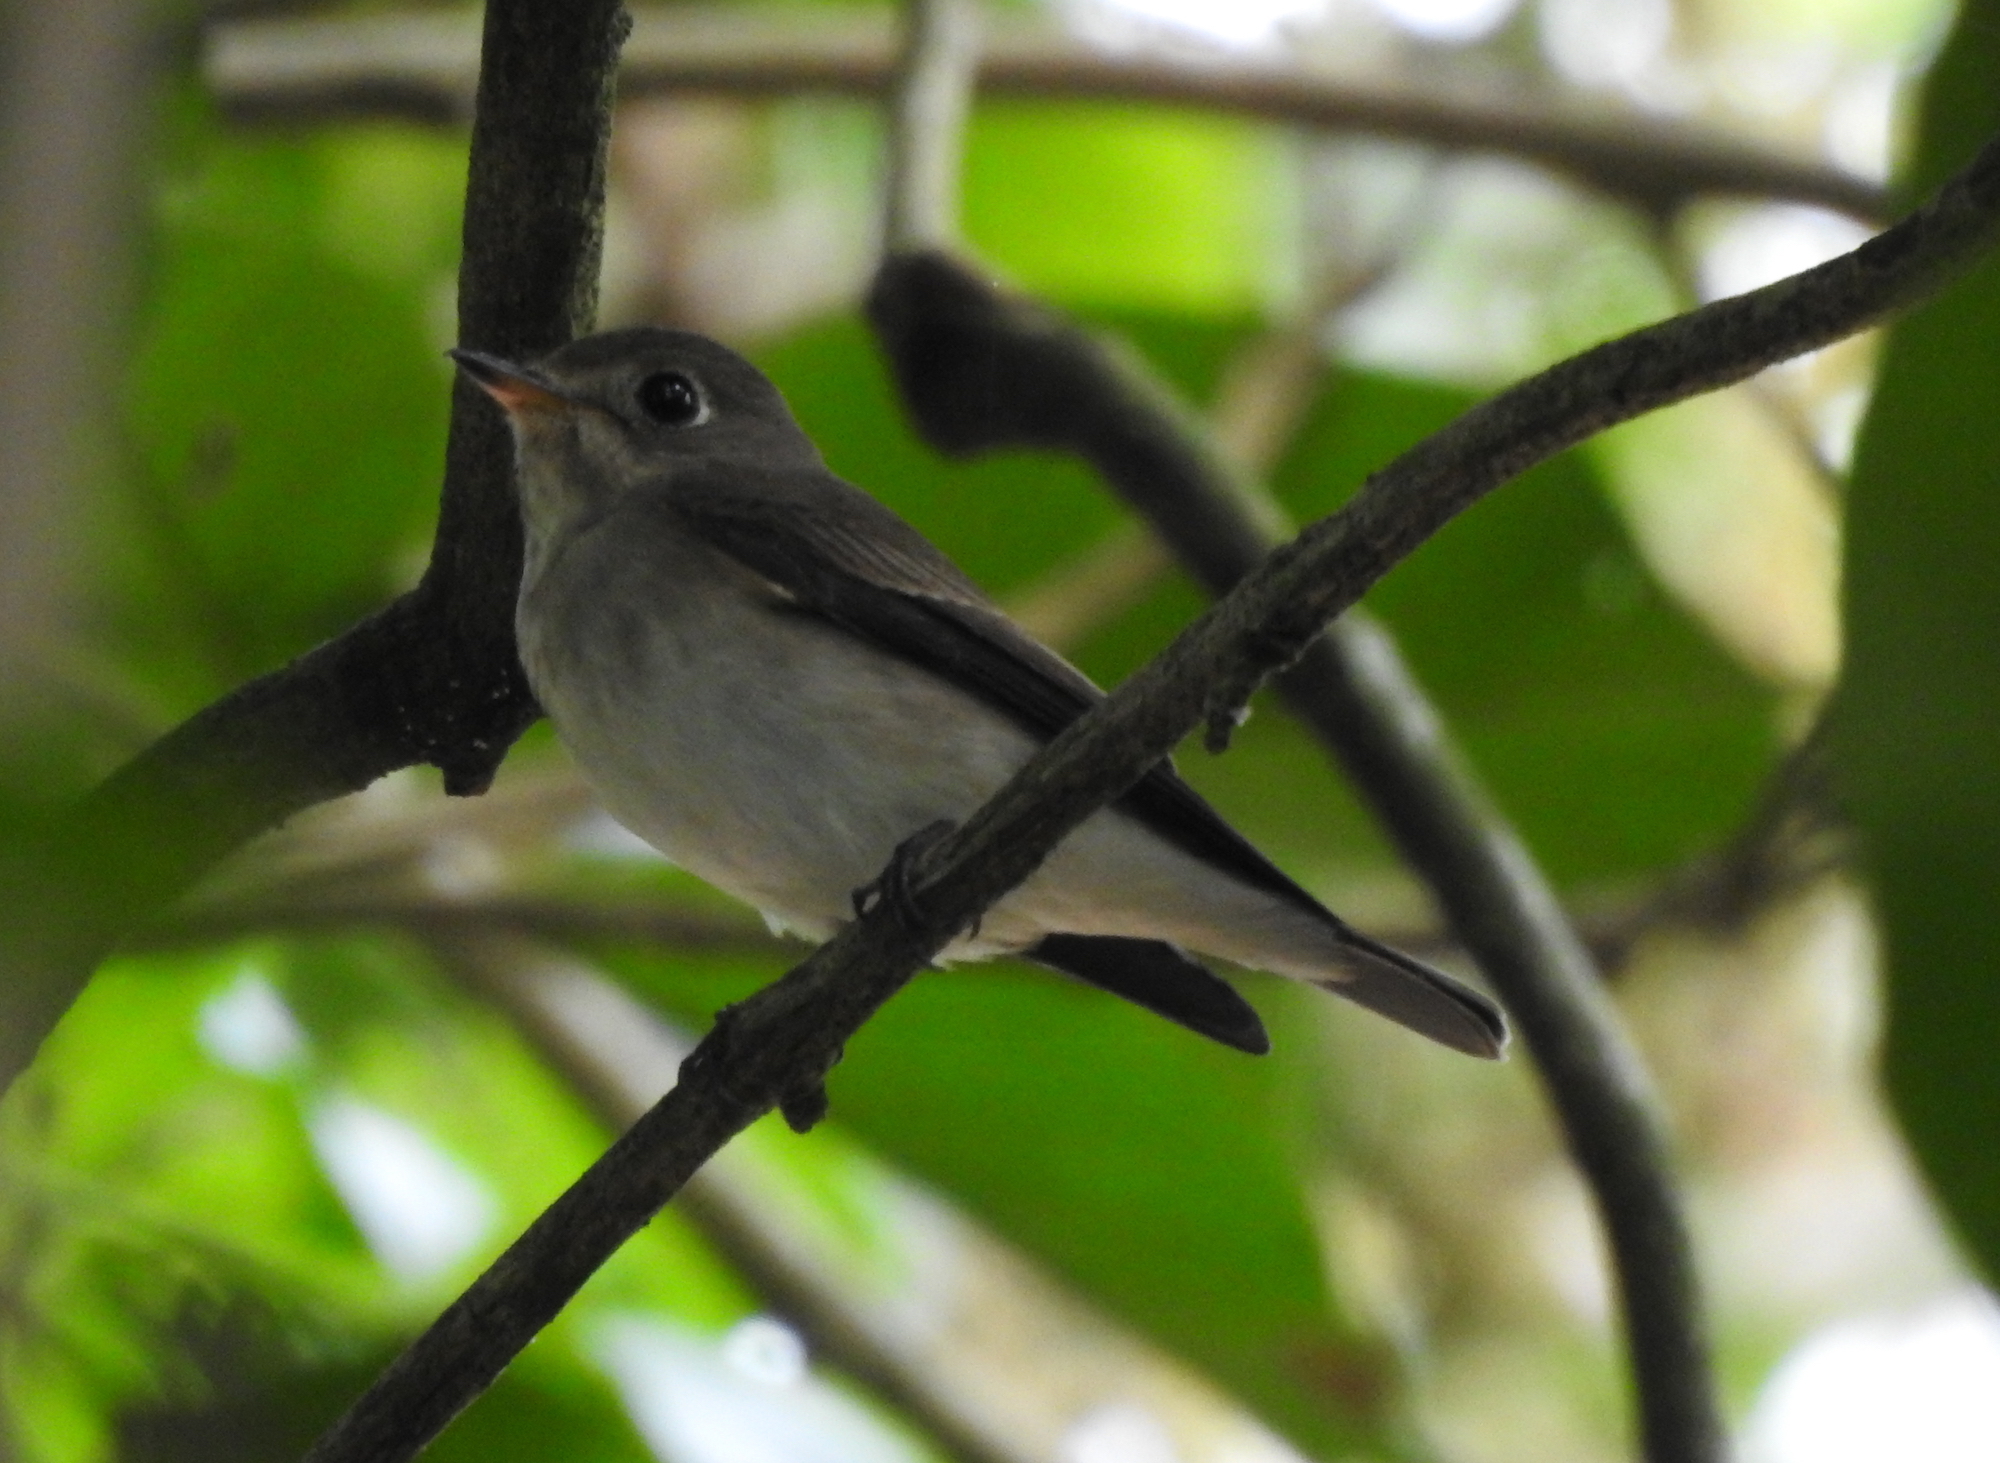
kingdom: Animalia
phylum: Chordata
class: Aves
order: Passeriformes
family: Muscicapidae
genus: Muscicapa
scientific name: Muscicapa latirostris
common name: Asian brown flycatcher
